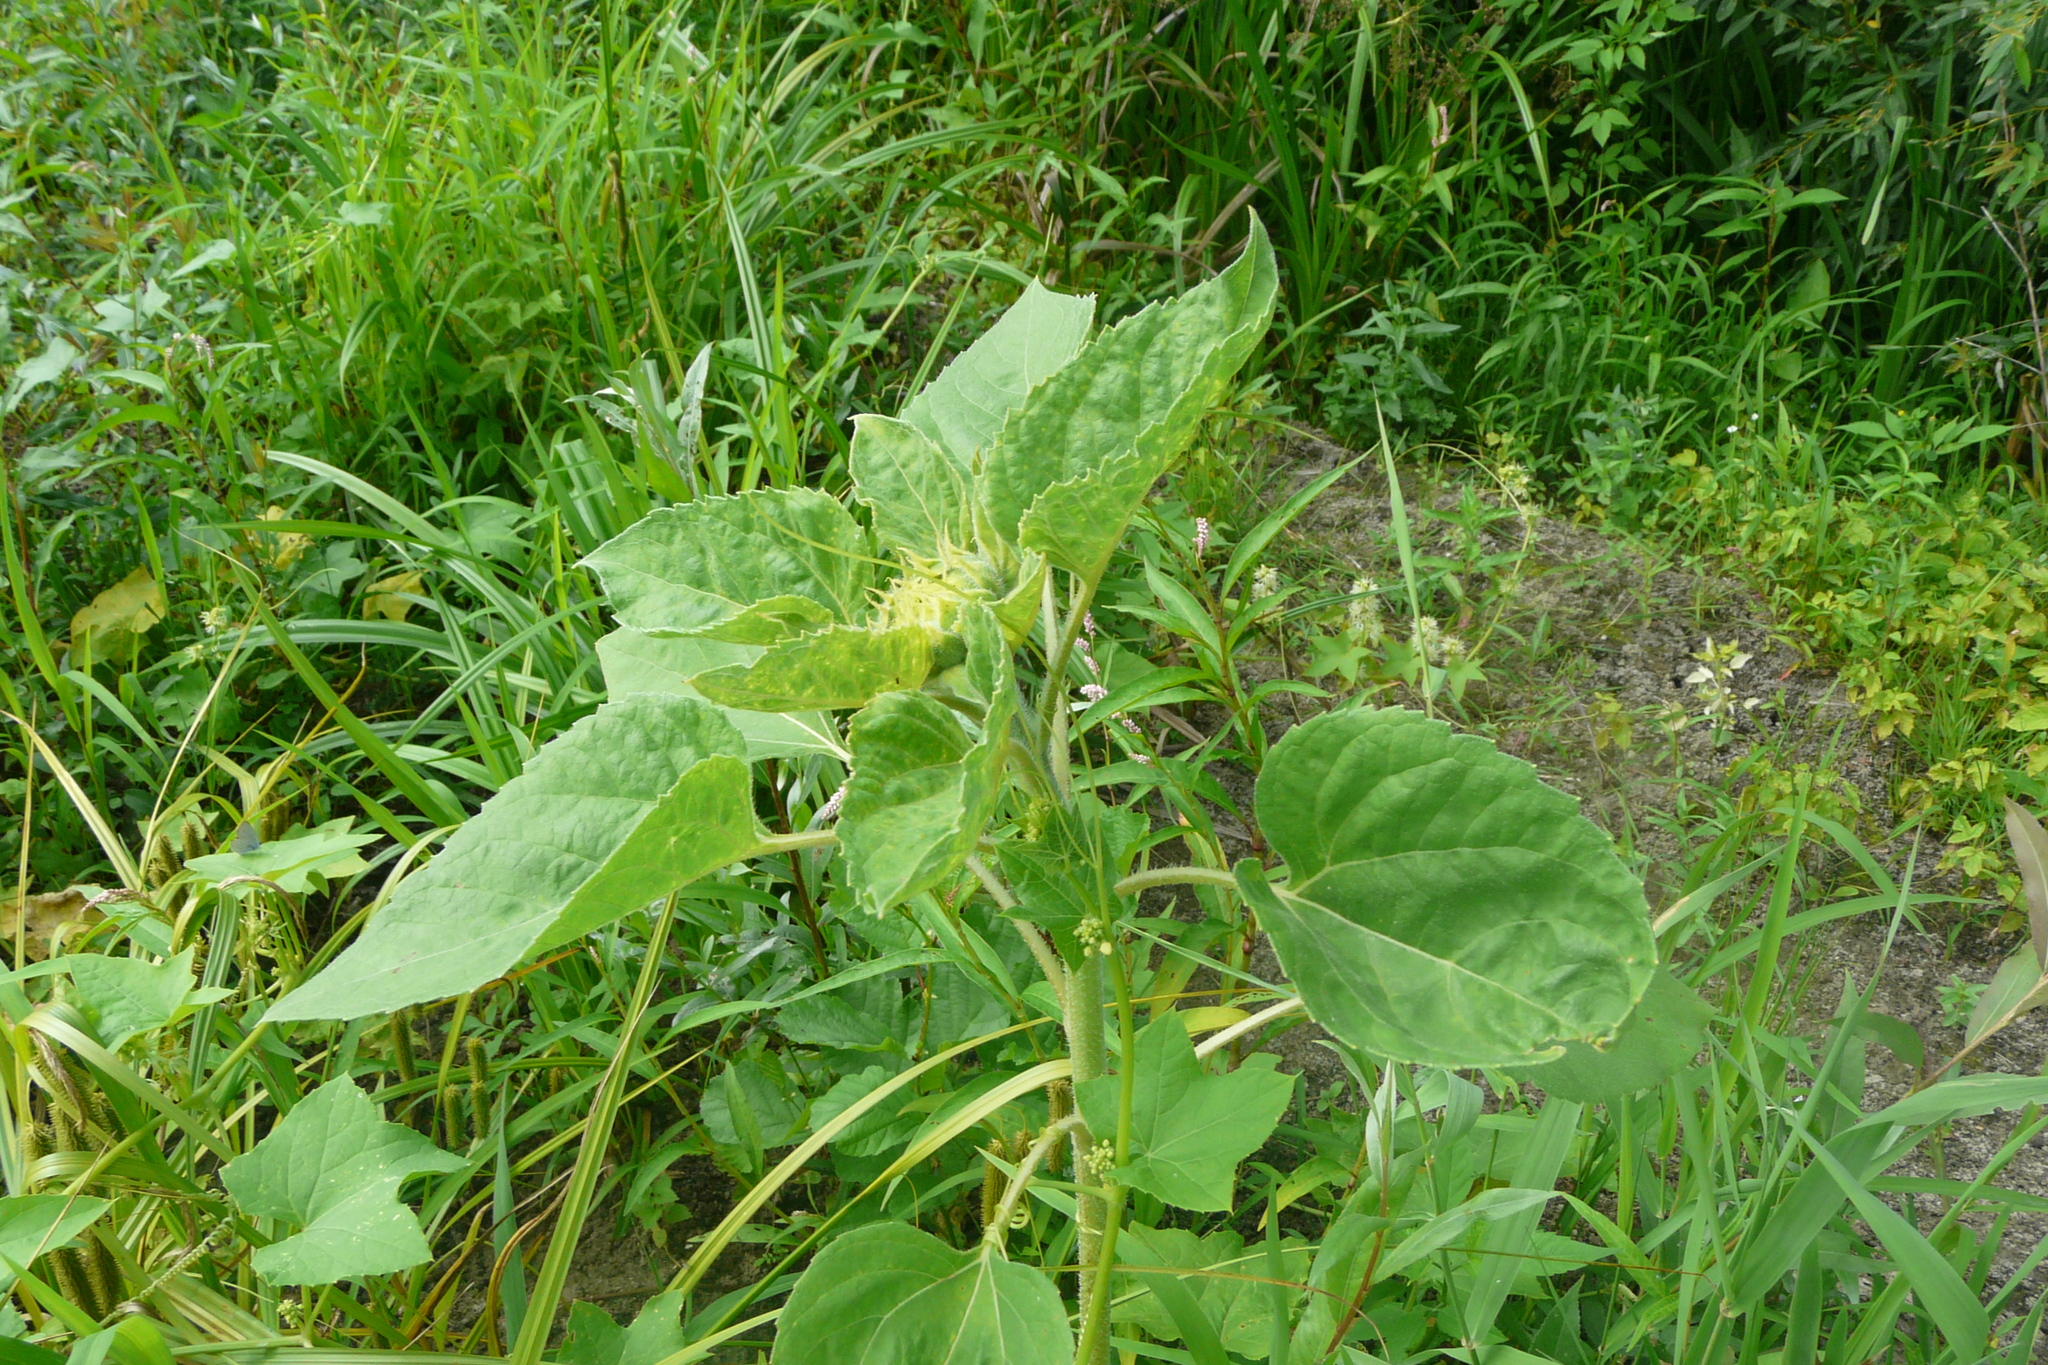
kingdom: Plantae
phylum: Tracheophyta
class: Magnoliopsida
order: Asterales
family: Asteraceae
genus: Helianthus
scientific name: Helianthus annuus
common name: Sunflower
